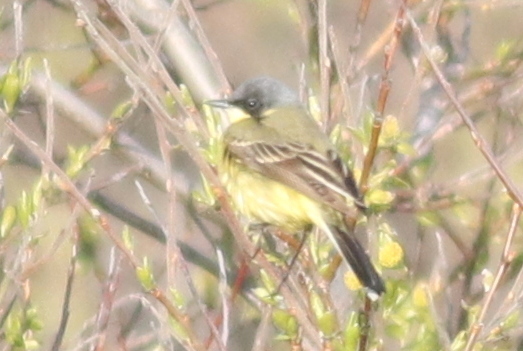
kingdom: Animalia
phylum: Chordata
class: Aves
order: Passeriformes
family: Motacillidae
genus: Motacilla
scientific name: Motacilla flava
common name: Western yellow wagtail
